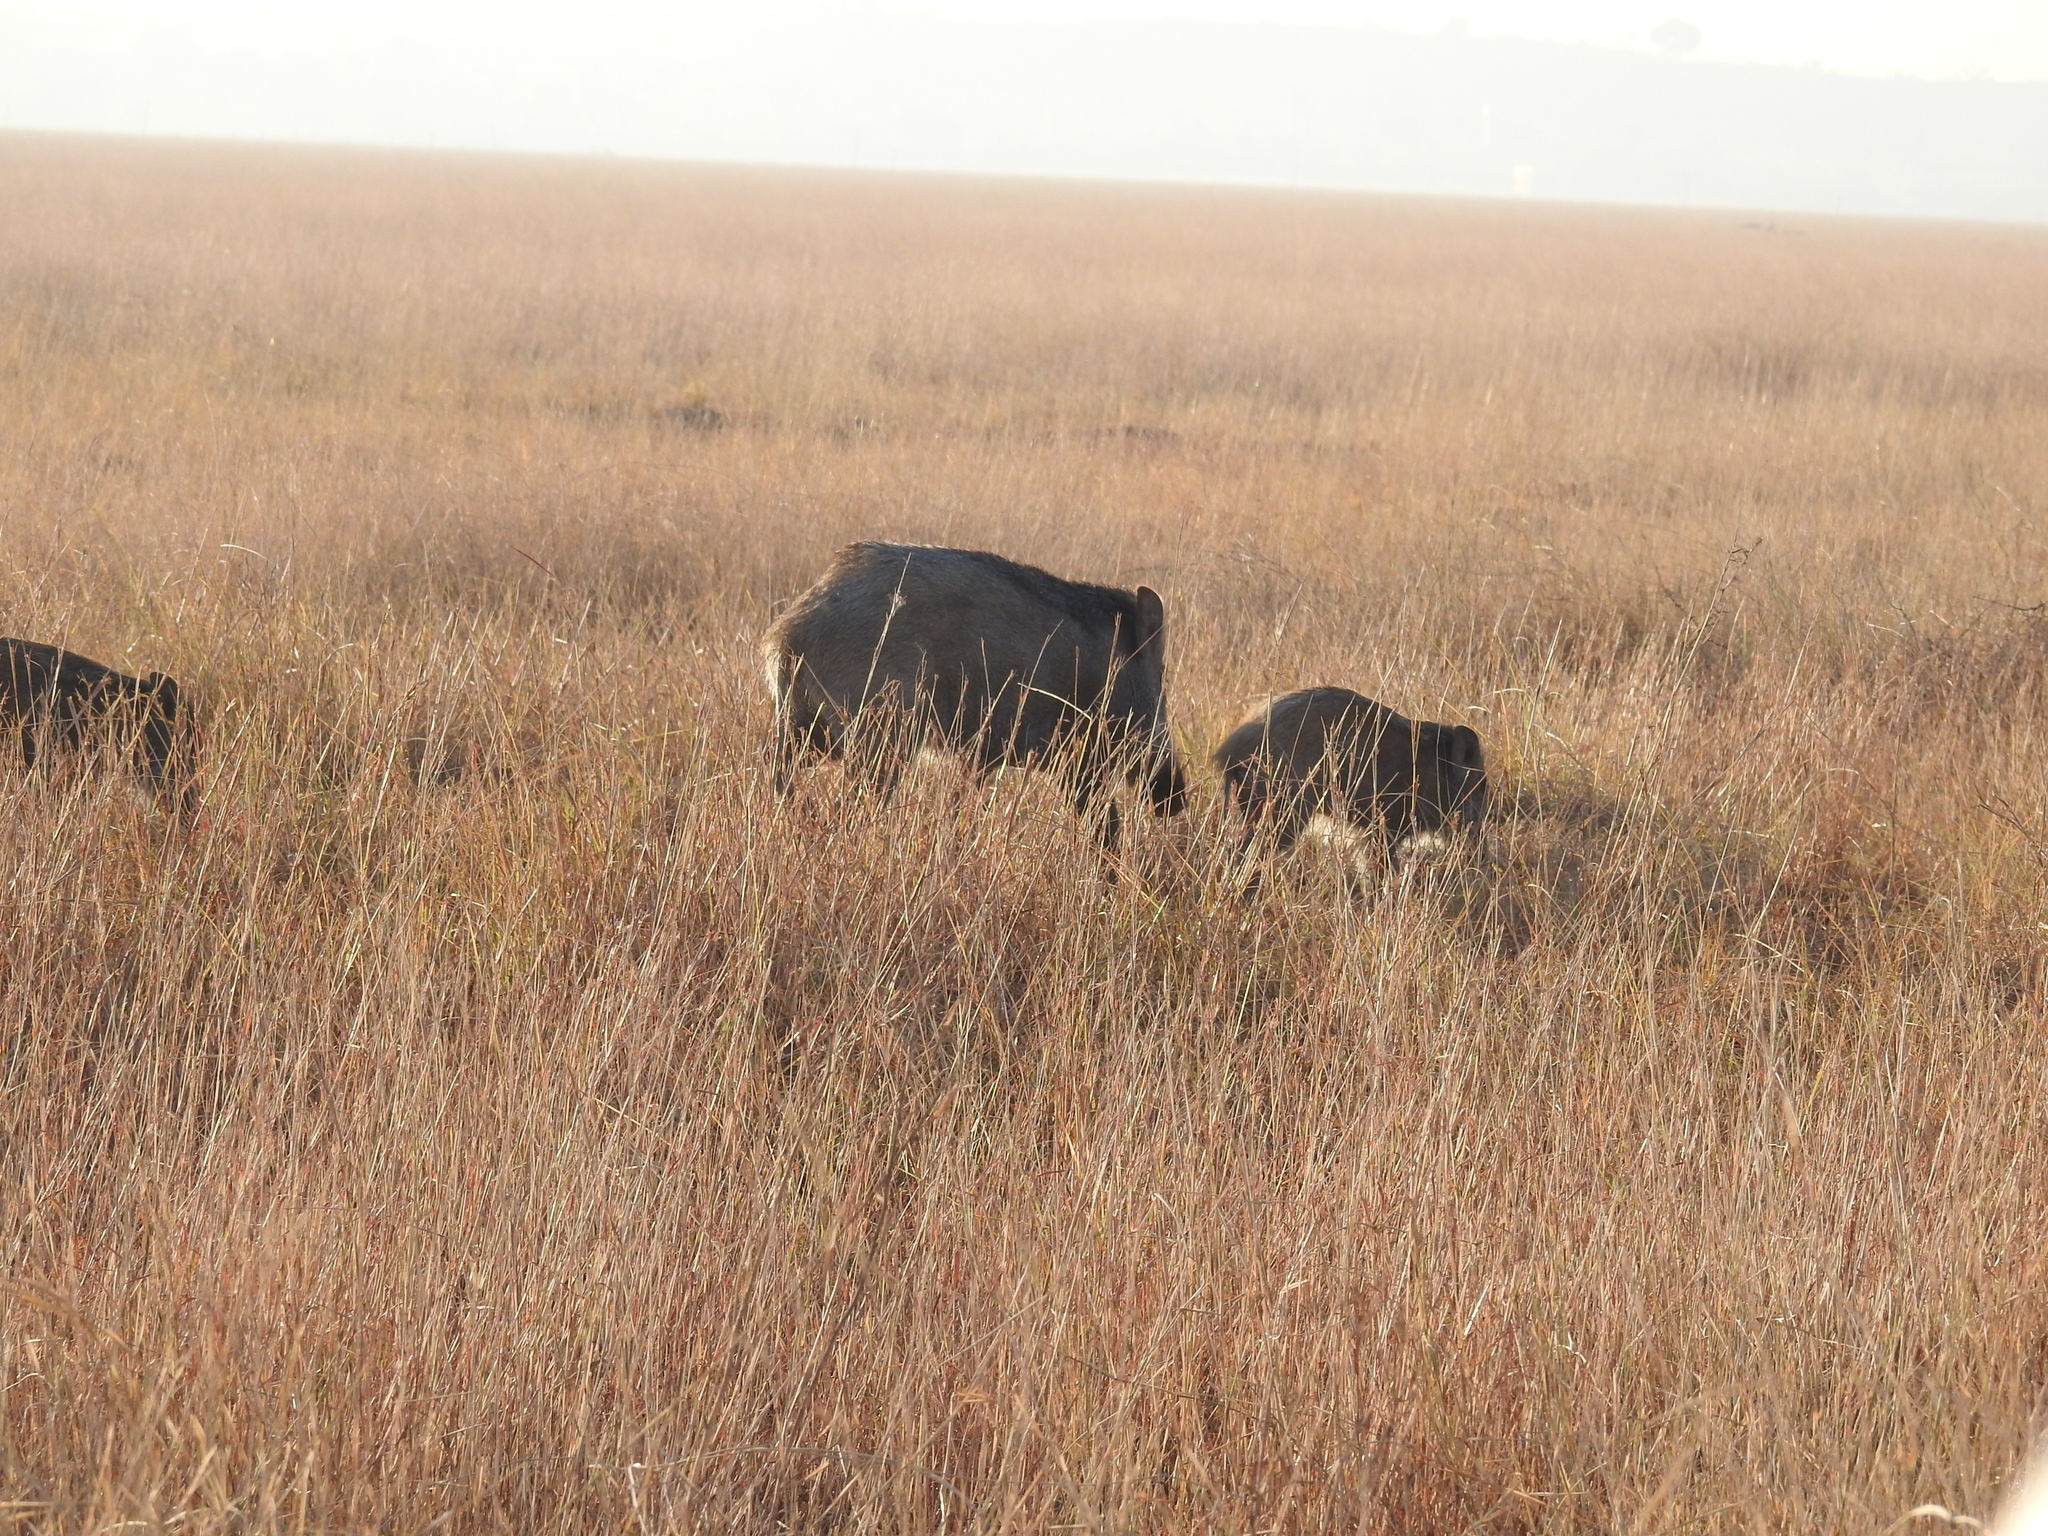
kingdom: Animalia
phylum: Chordata
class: Mammalia
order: Artiodactyla
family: Suidae
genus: Sus
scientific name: Sus scrofa
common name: Wild boar
